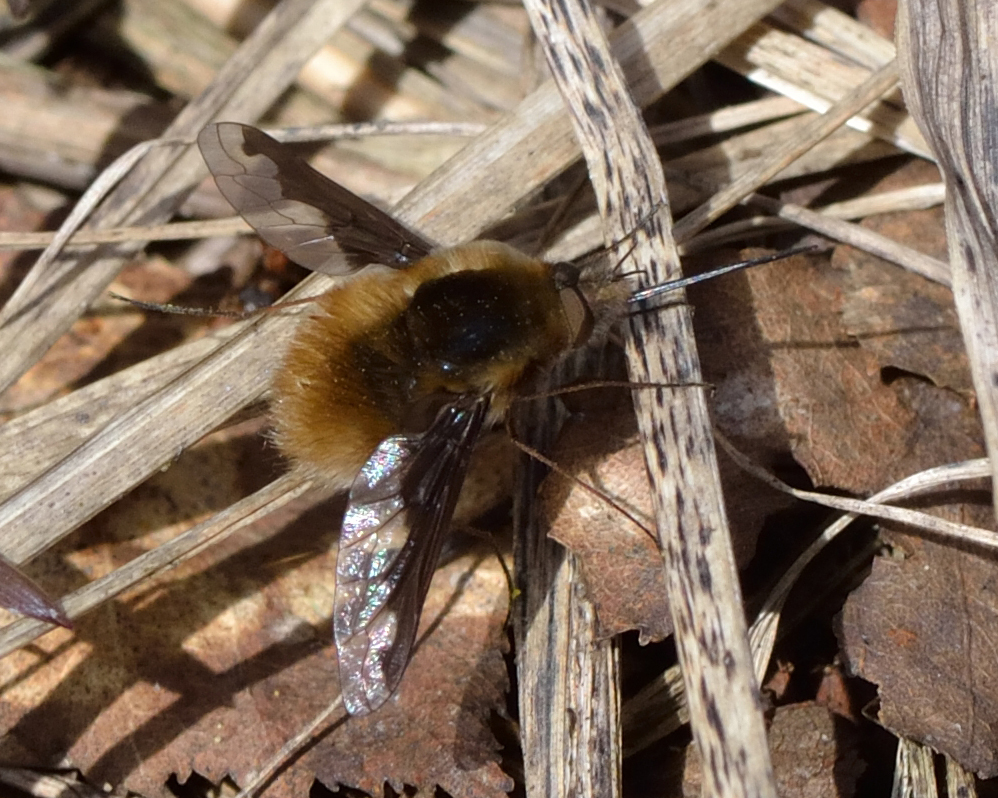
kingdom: Animalia
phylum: Arthropoda
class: Insecta
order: Diptera
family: Bombyliidae
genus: Bombylius
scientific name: Bombylius major
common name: Bee fly
